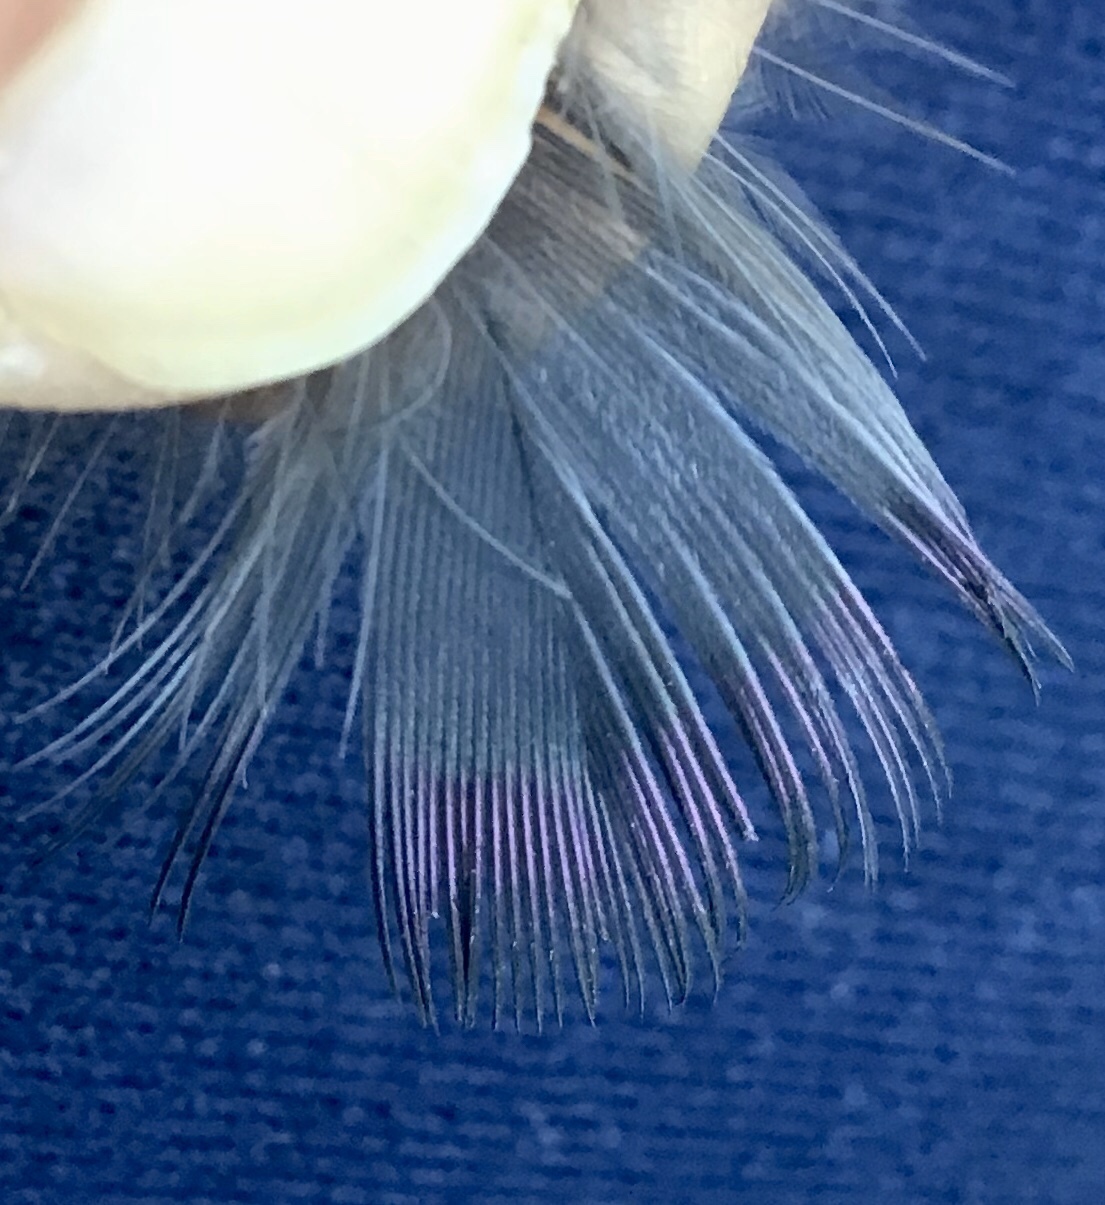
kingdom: Animalia
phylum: Chordata
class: Aves
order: Columbiformes
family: Columbidae
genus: Columba
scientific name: Columba livia
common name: Rock pigeon
